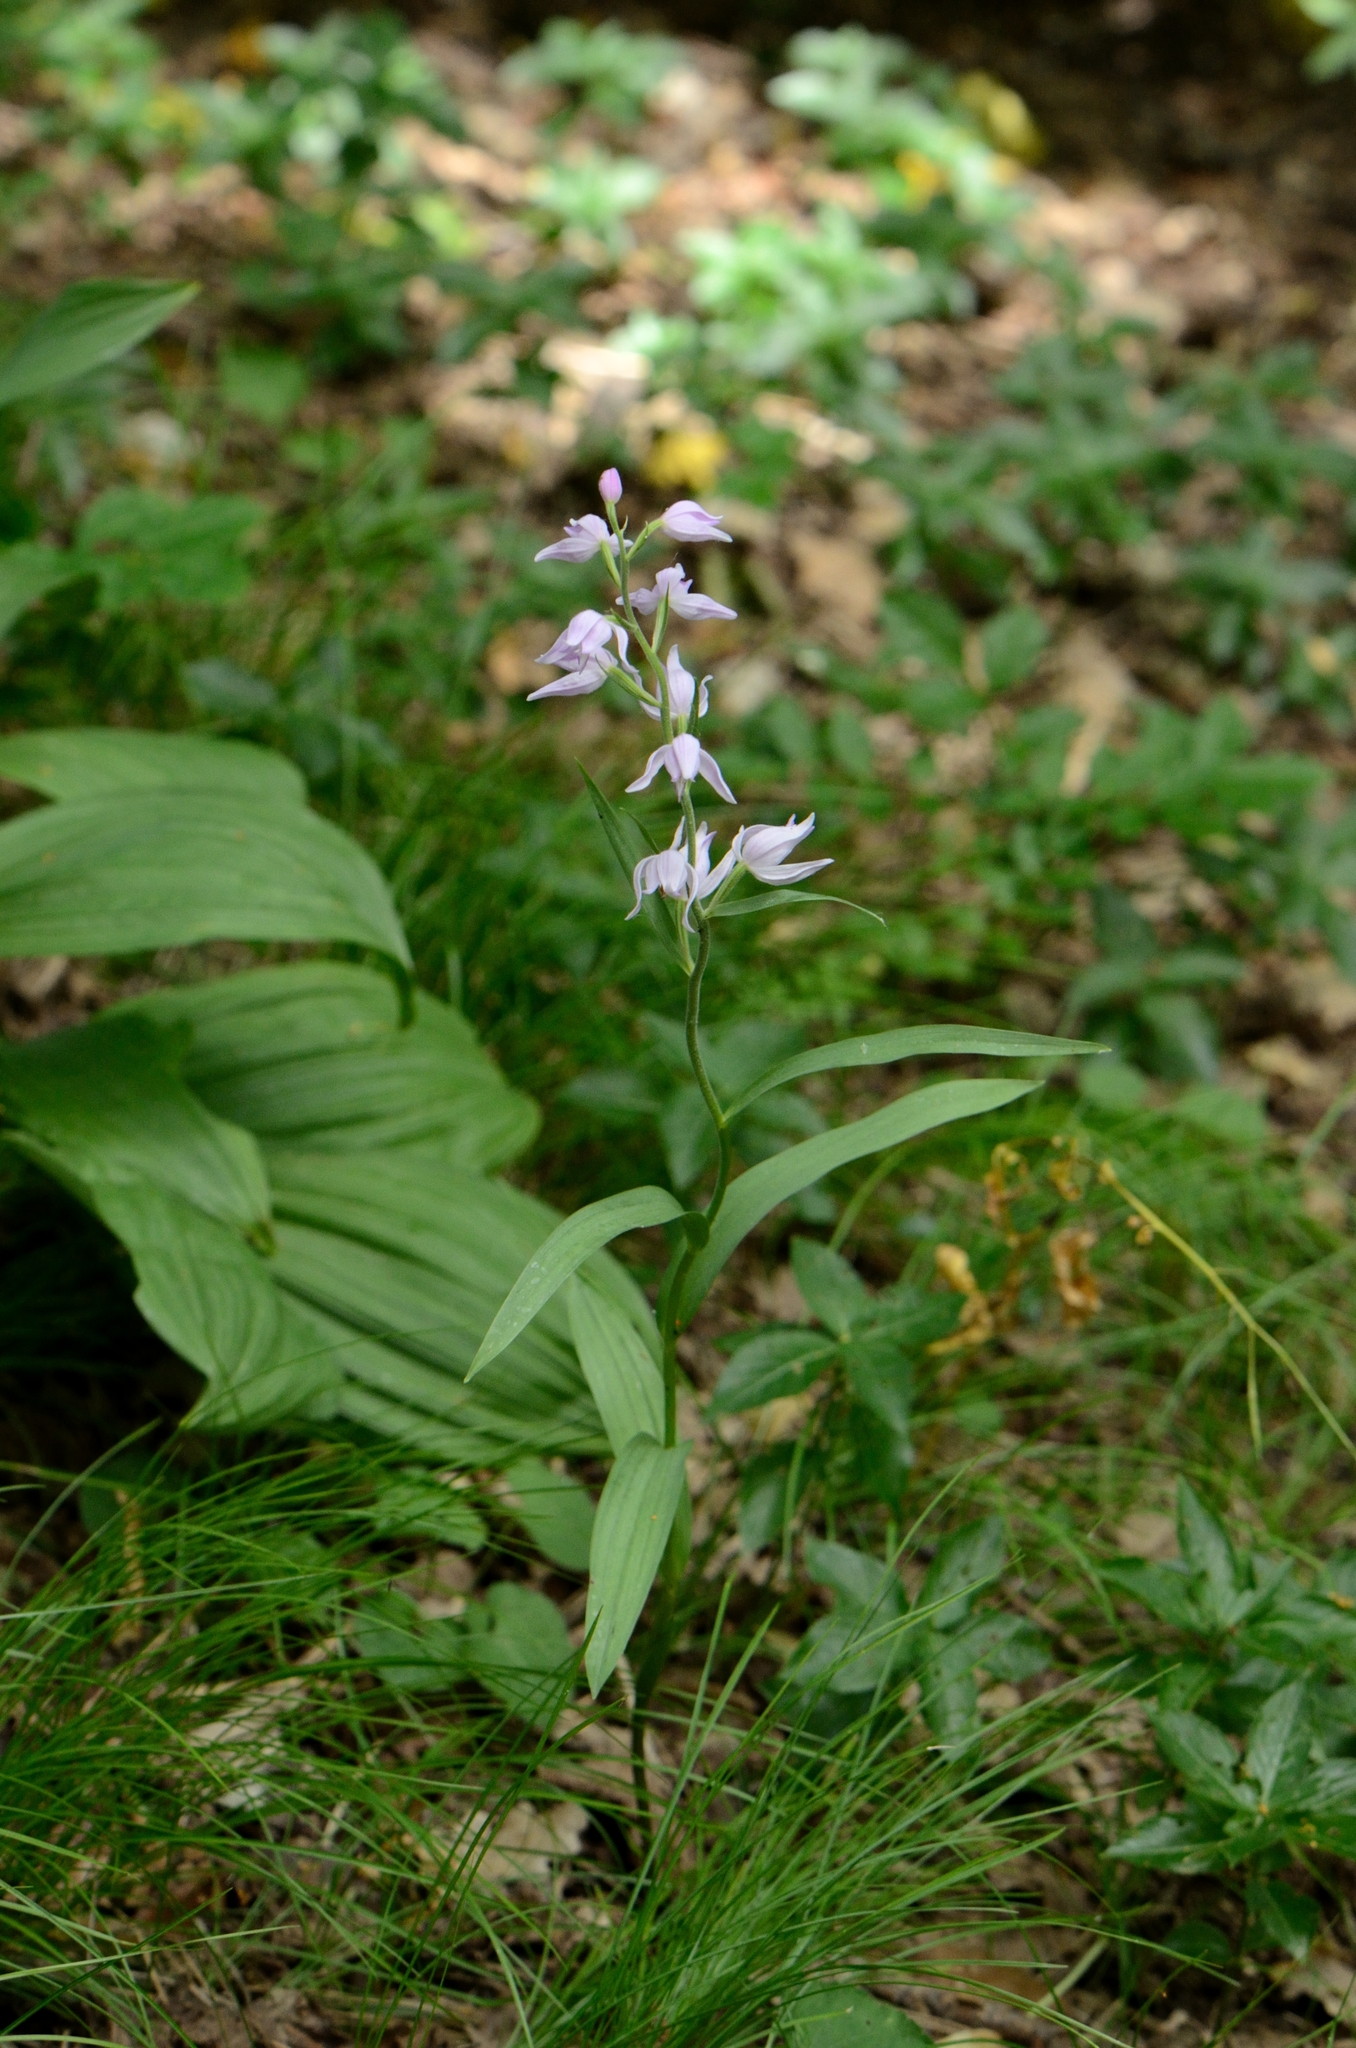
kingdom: Plantae
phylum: Tracheophyta
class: Liliopsida
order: Asparagales
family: Orchidaceae
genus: Cephalanthera
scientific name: Cephalanthera rubra
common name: Red helleborine
